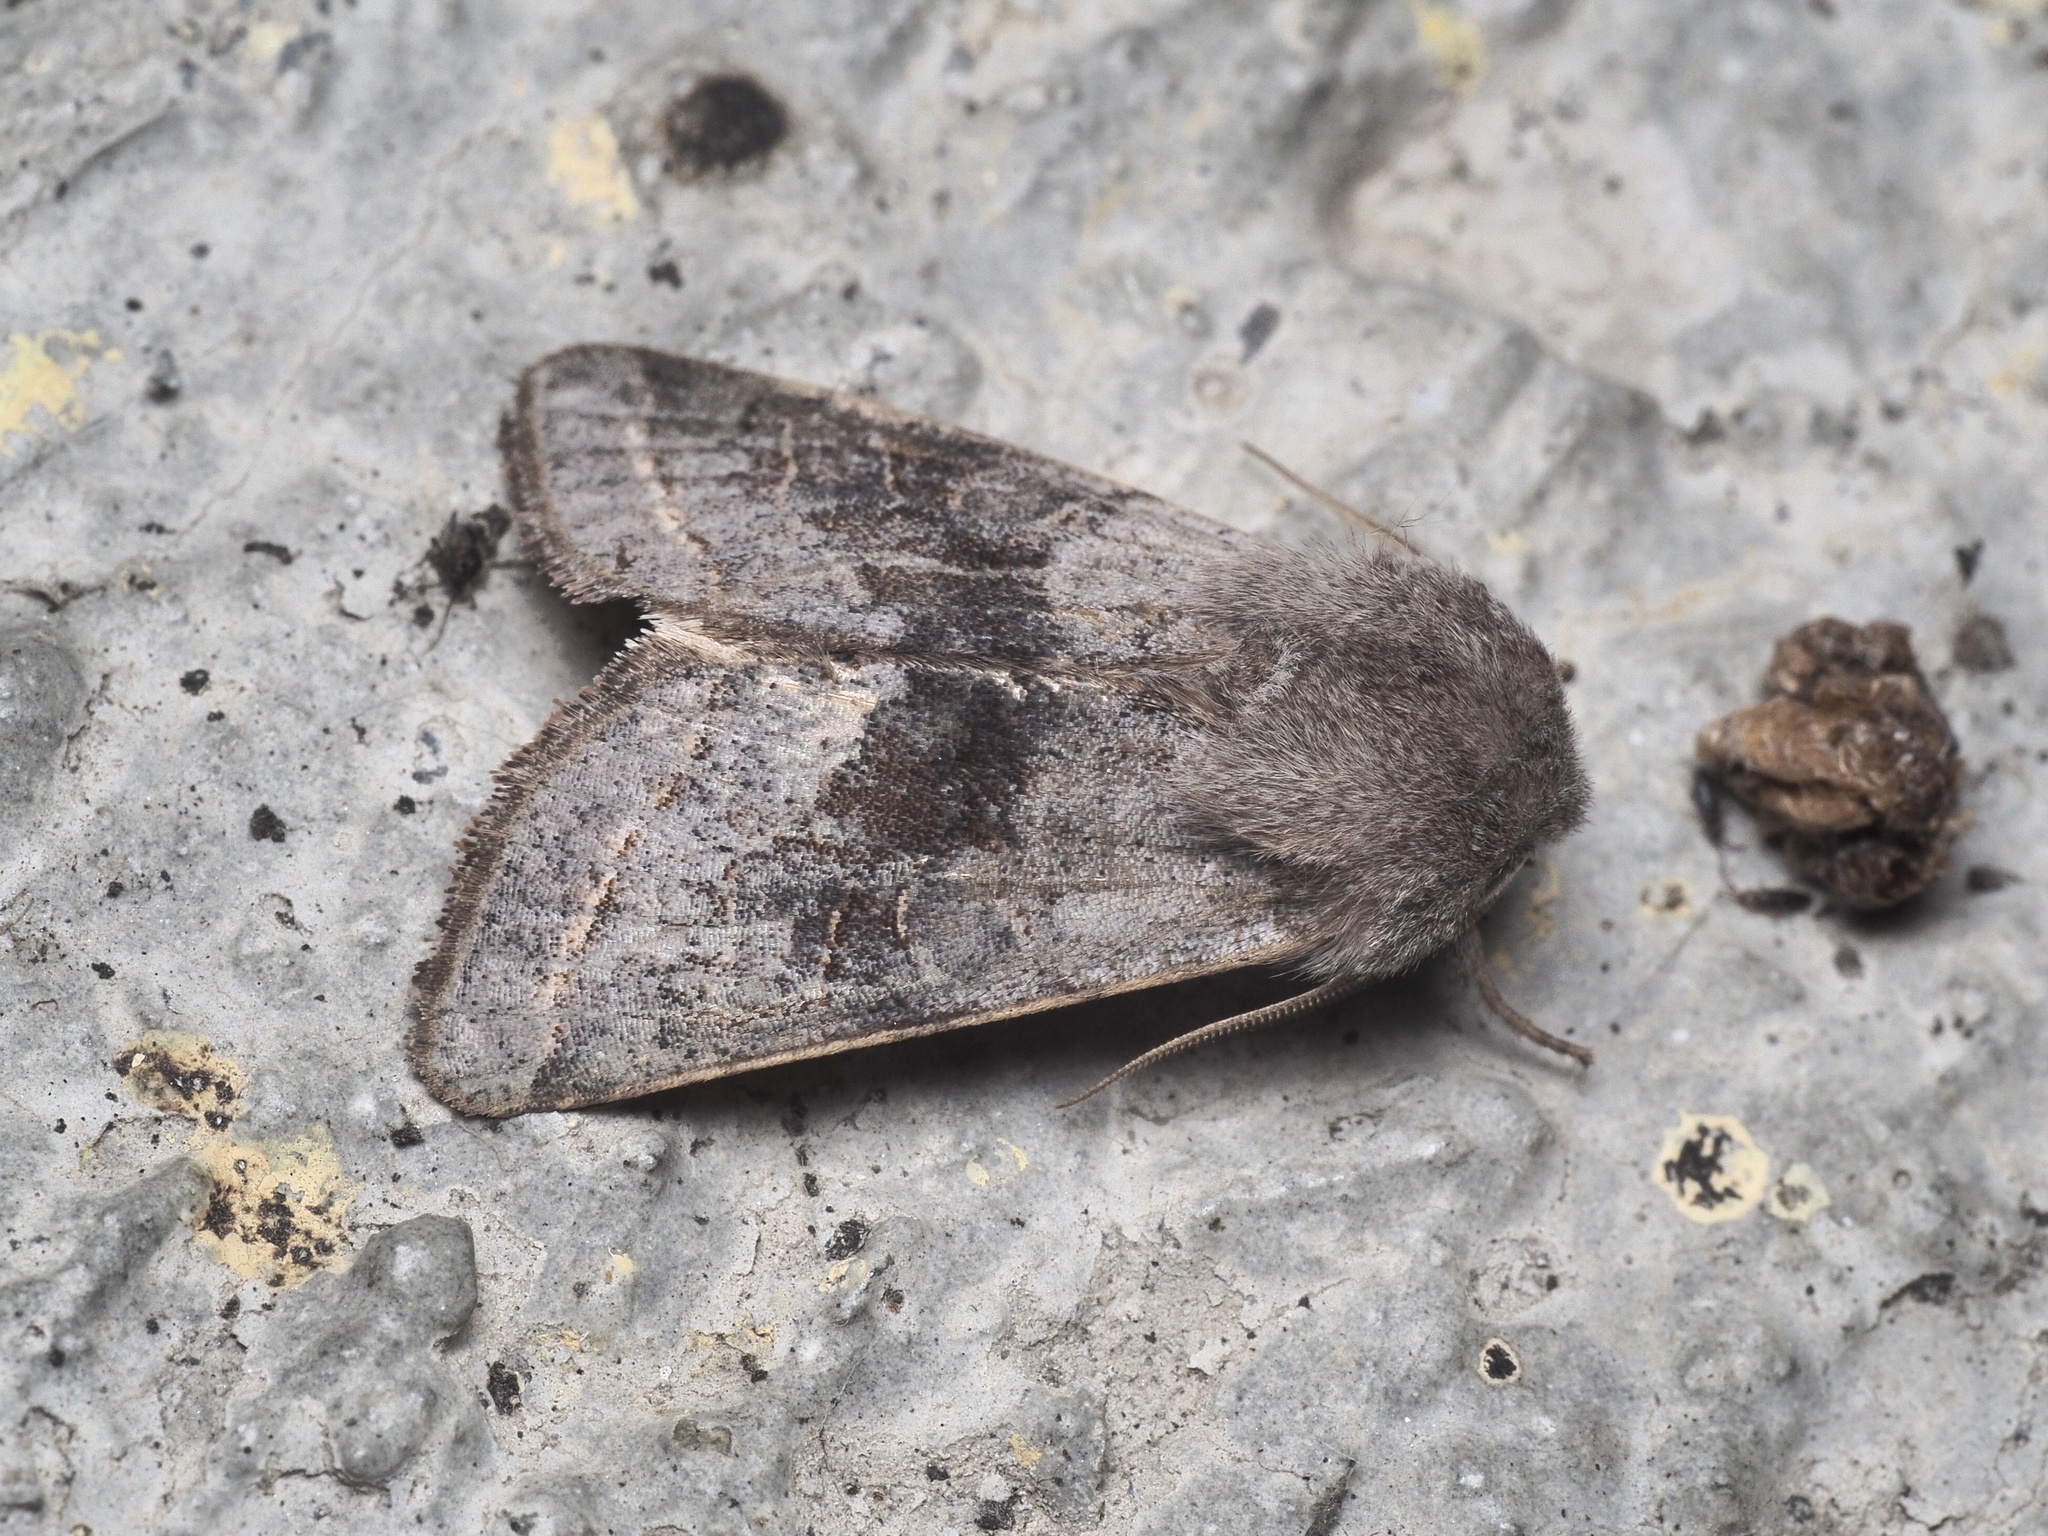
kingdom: Animalia
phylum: Arthropoda
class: Insecta
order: Lepidoptera
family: Noctuidae
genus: Orthosia
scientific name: Orthosia opima
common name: Northern drab
